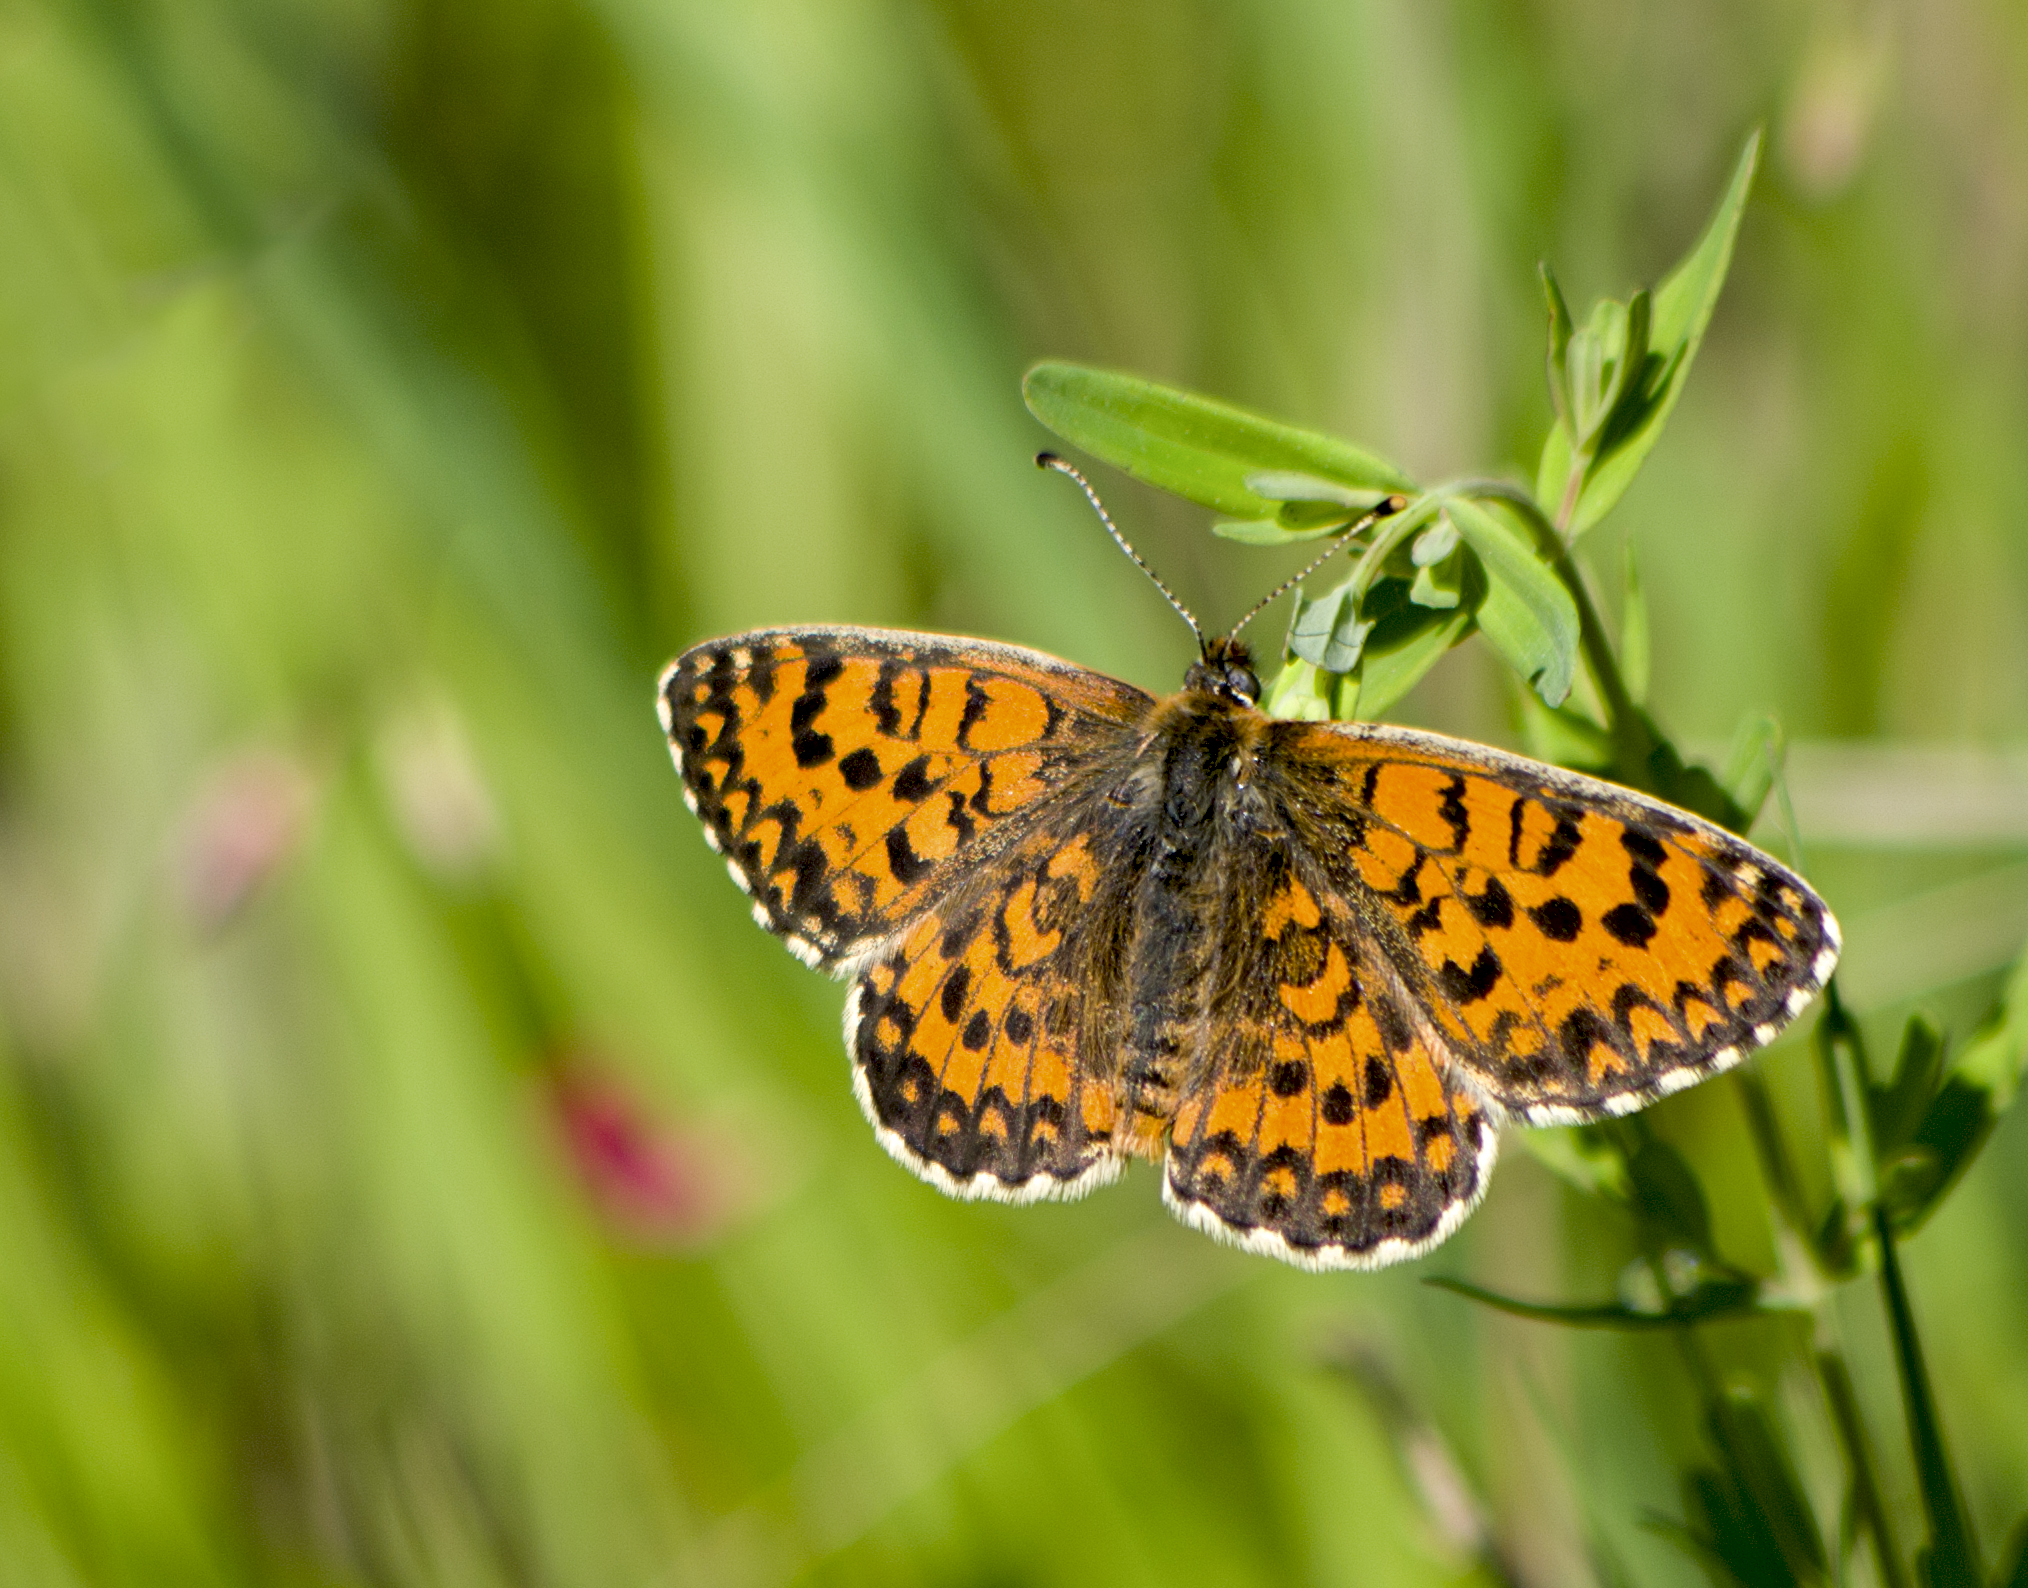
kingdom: Animalia
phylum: Arthropoda
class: Insecta
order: Lepidoptera
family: Nymphalidae
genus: Melitaea
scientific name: Melitaea trivia
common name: Lesser spotted fritillary
